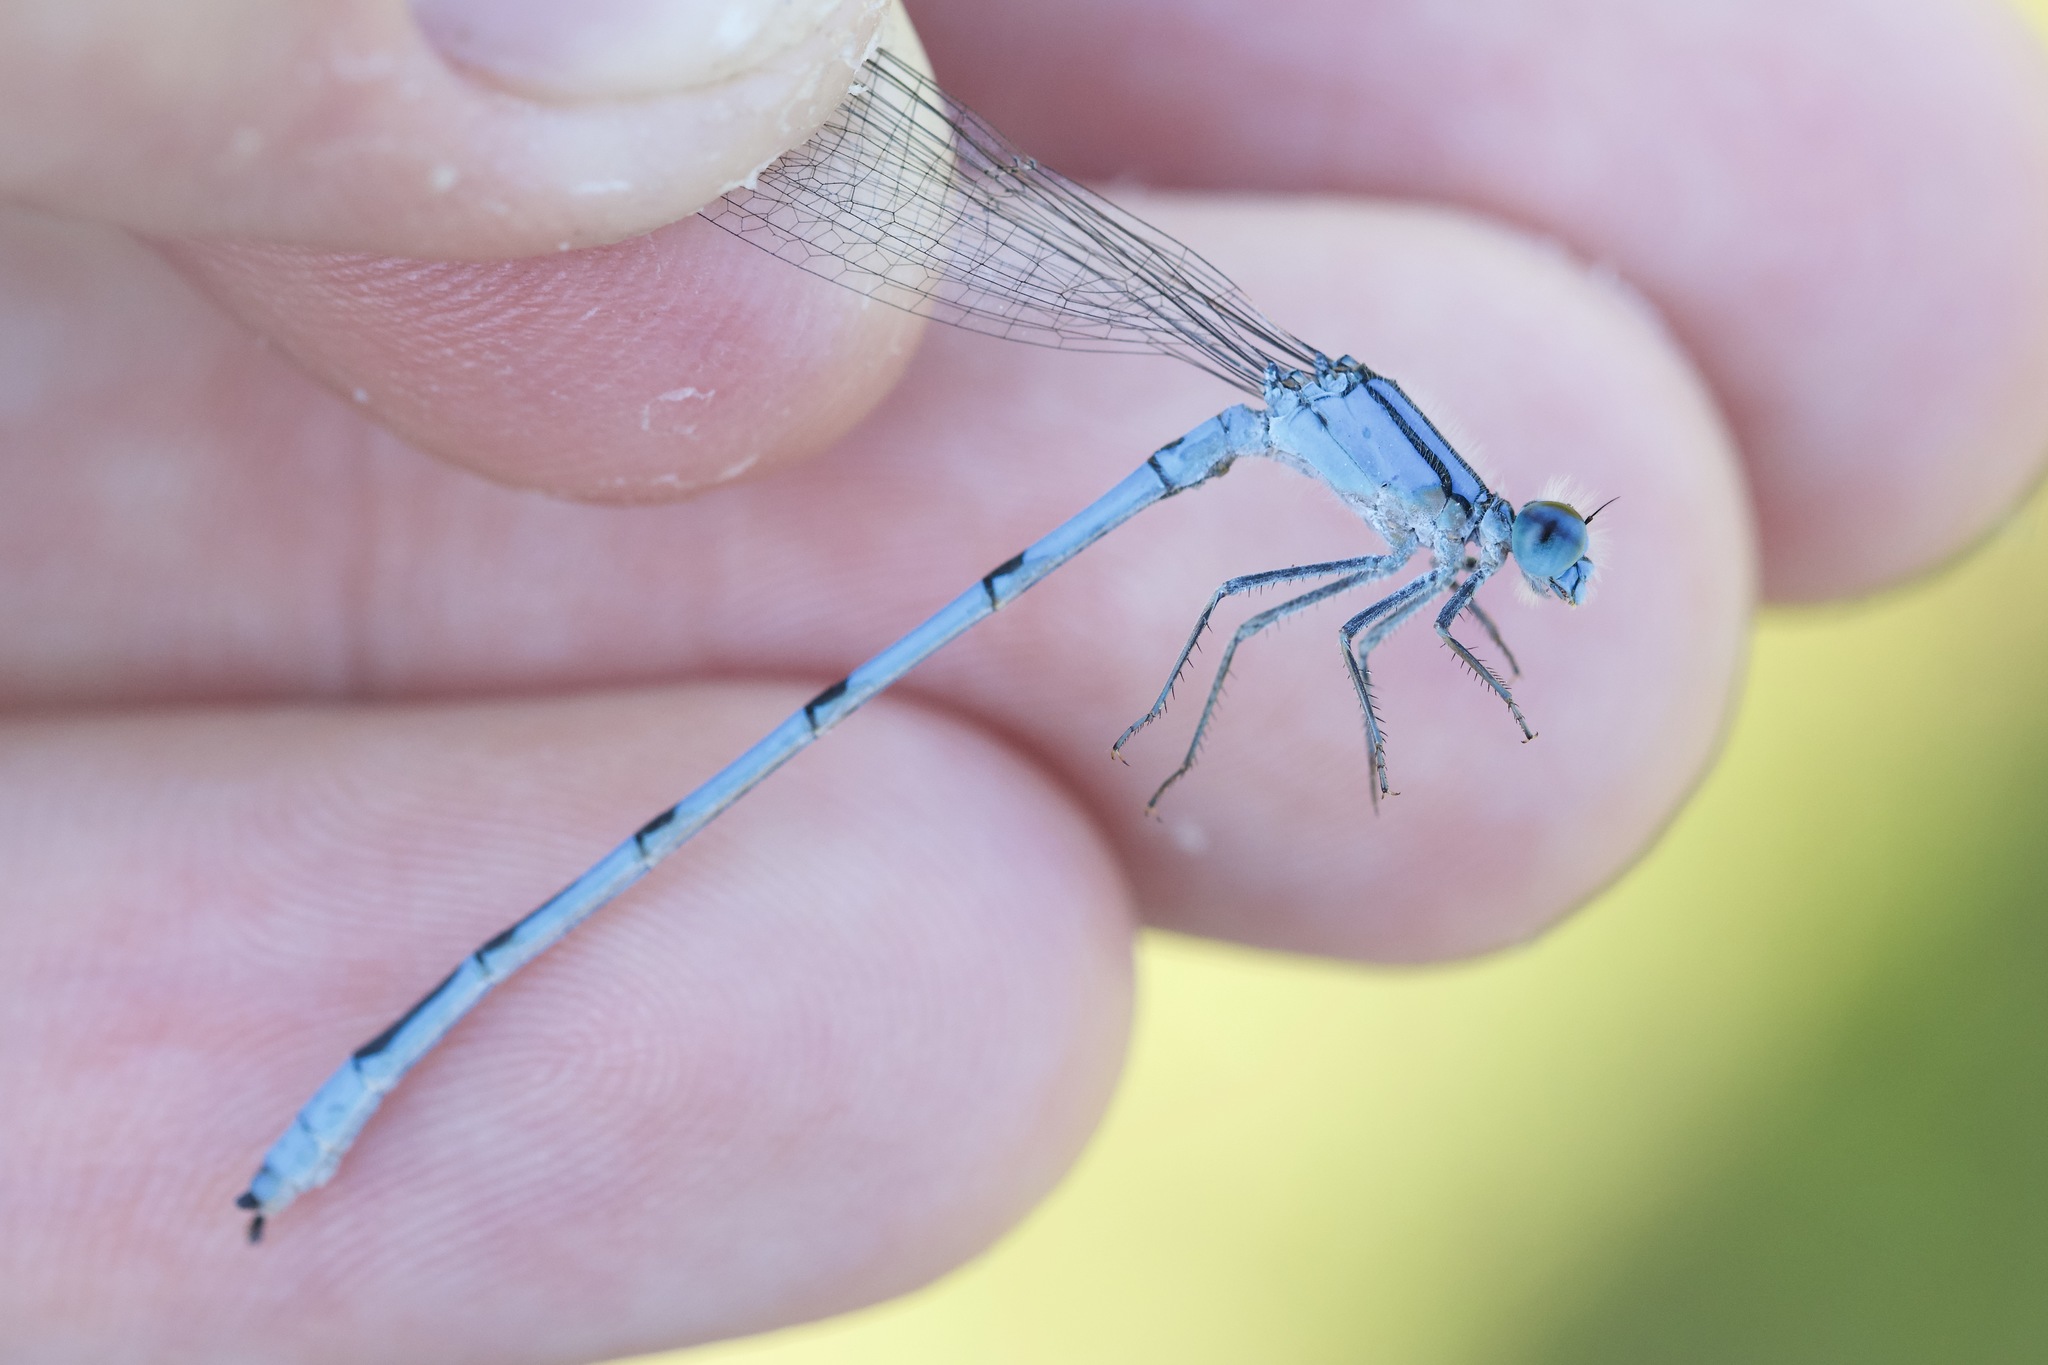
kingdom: Animalia
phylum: Arthropoda
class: Insecta
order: Odonata
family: Coenagrionidae
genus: Enallagma
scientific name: Enallagma civile
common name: Damselfly
